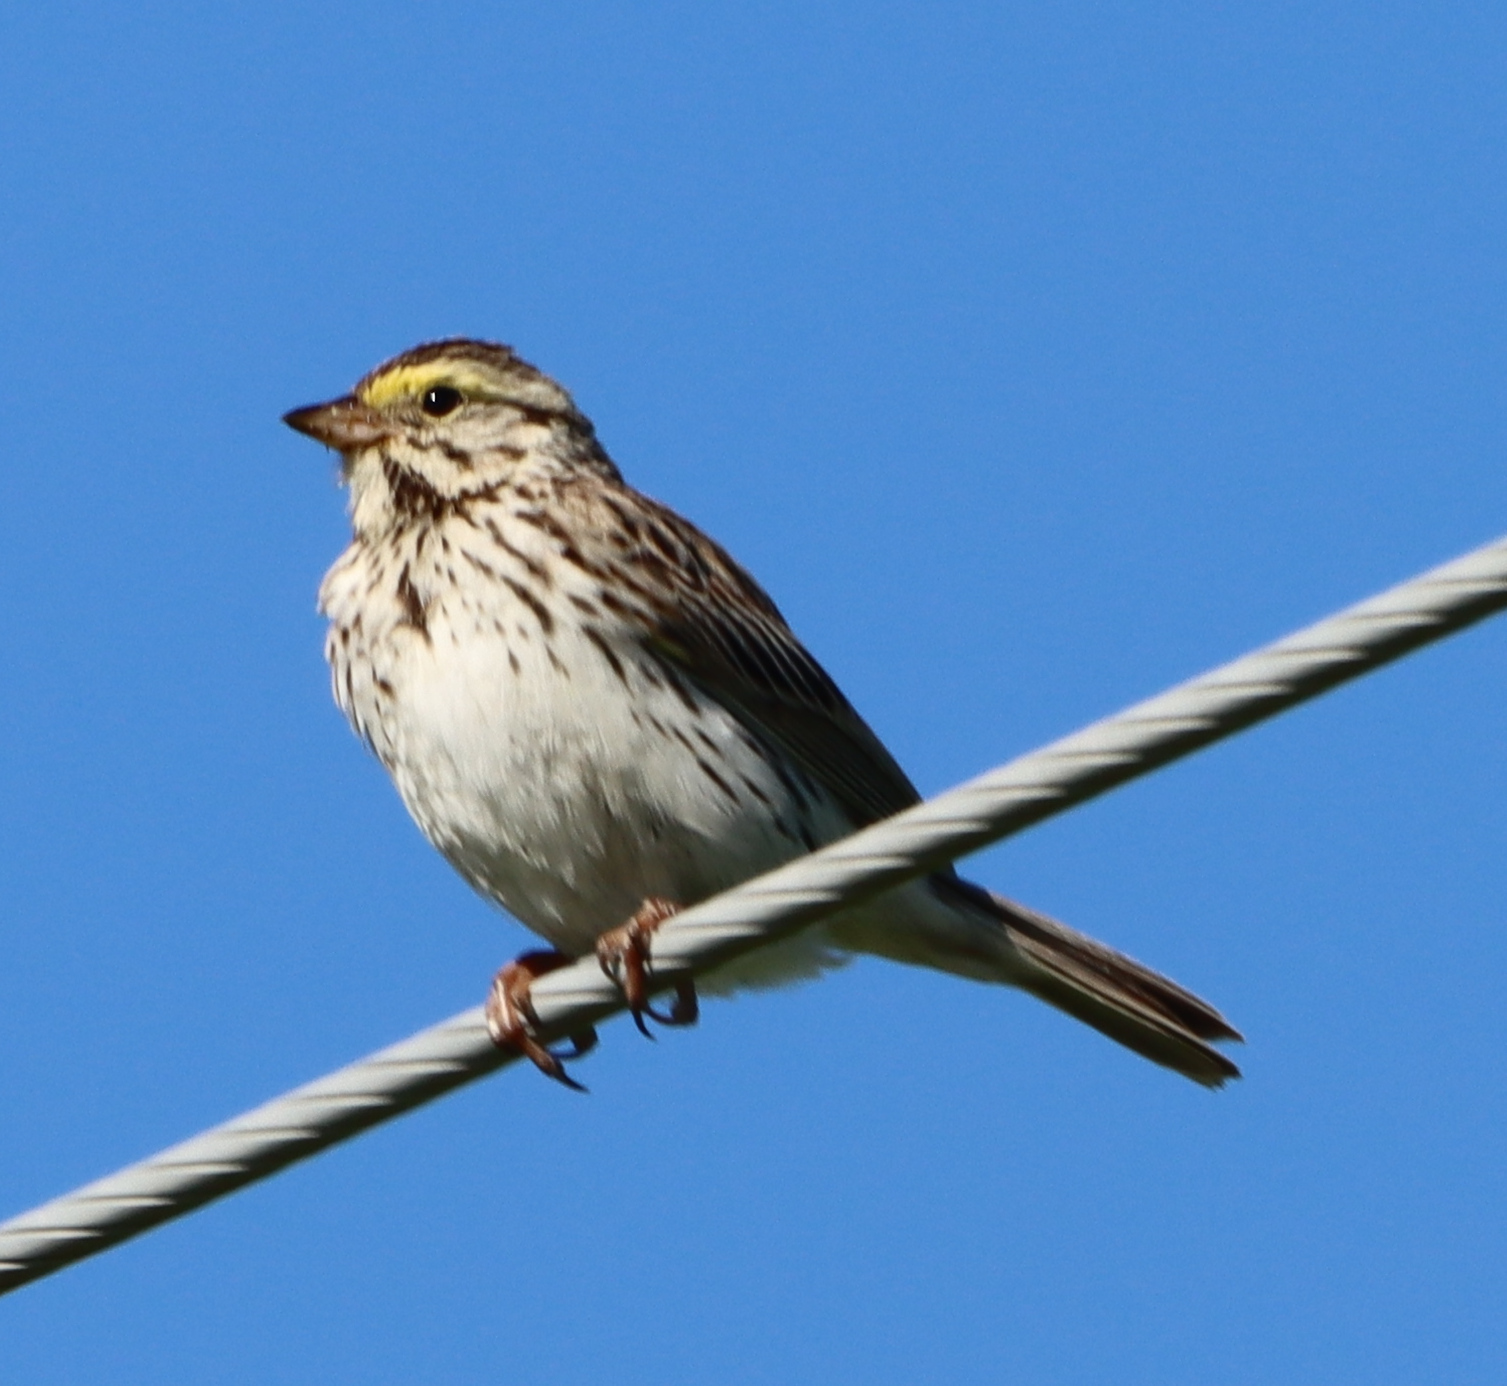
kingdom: Animalia
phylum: Chordata
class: Aves
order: Passeriformes
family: Passerellidae
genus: Passerculus
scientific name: Passerculus sandwichensis
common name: Savannah sparrow
